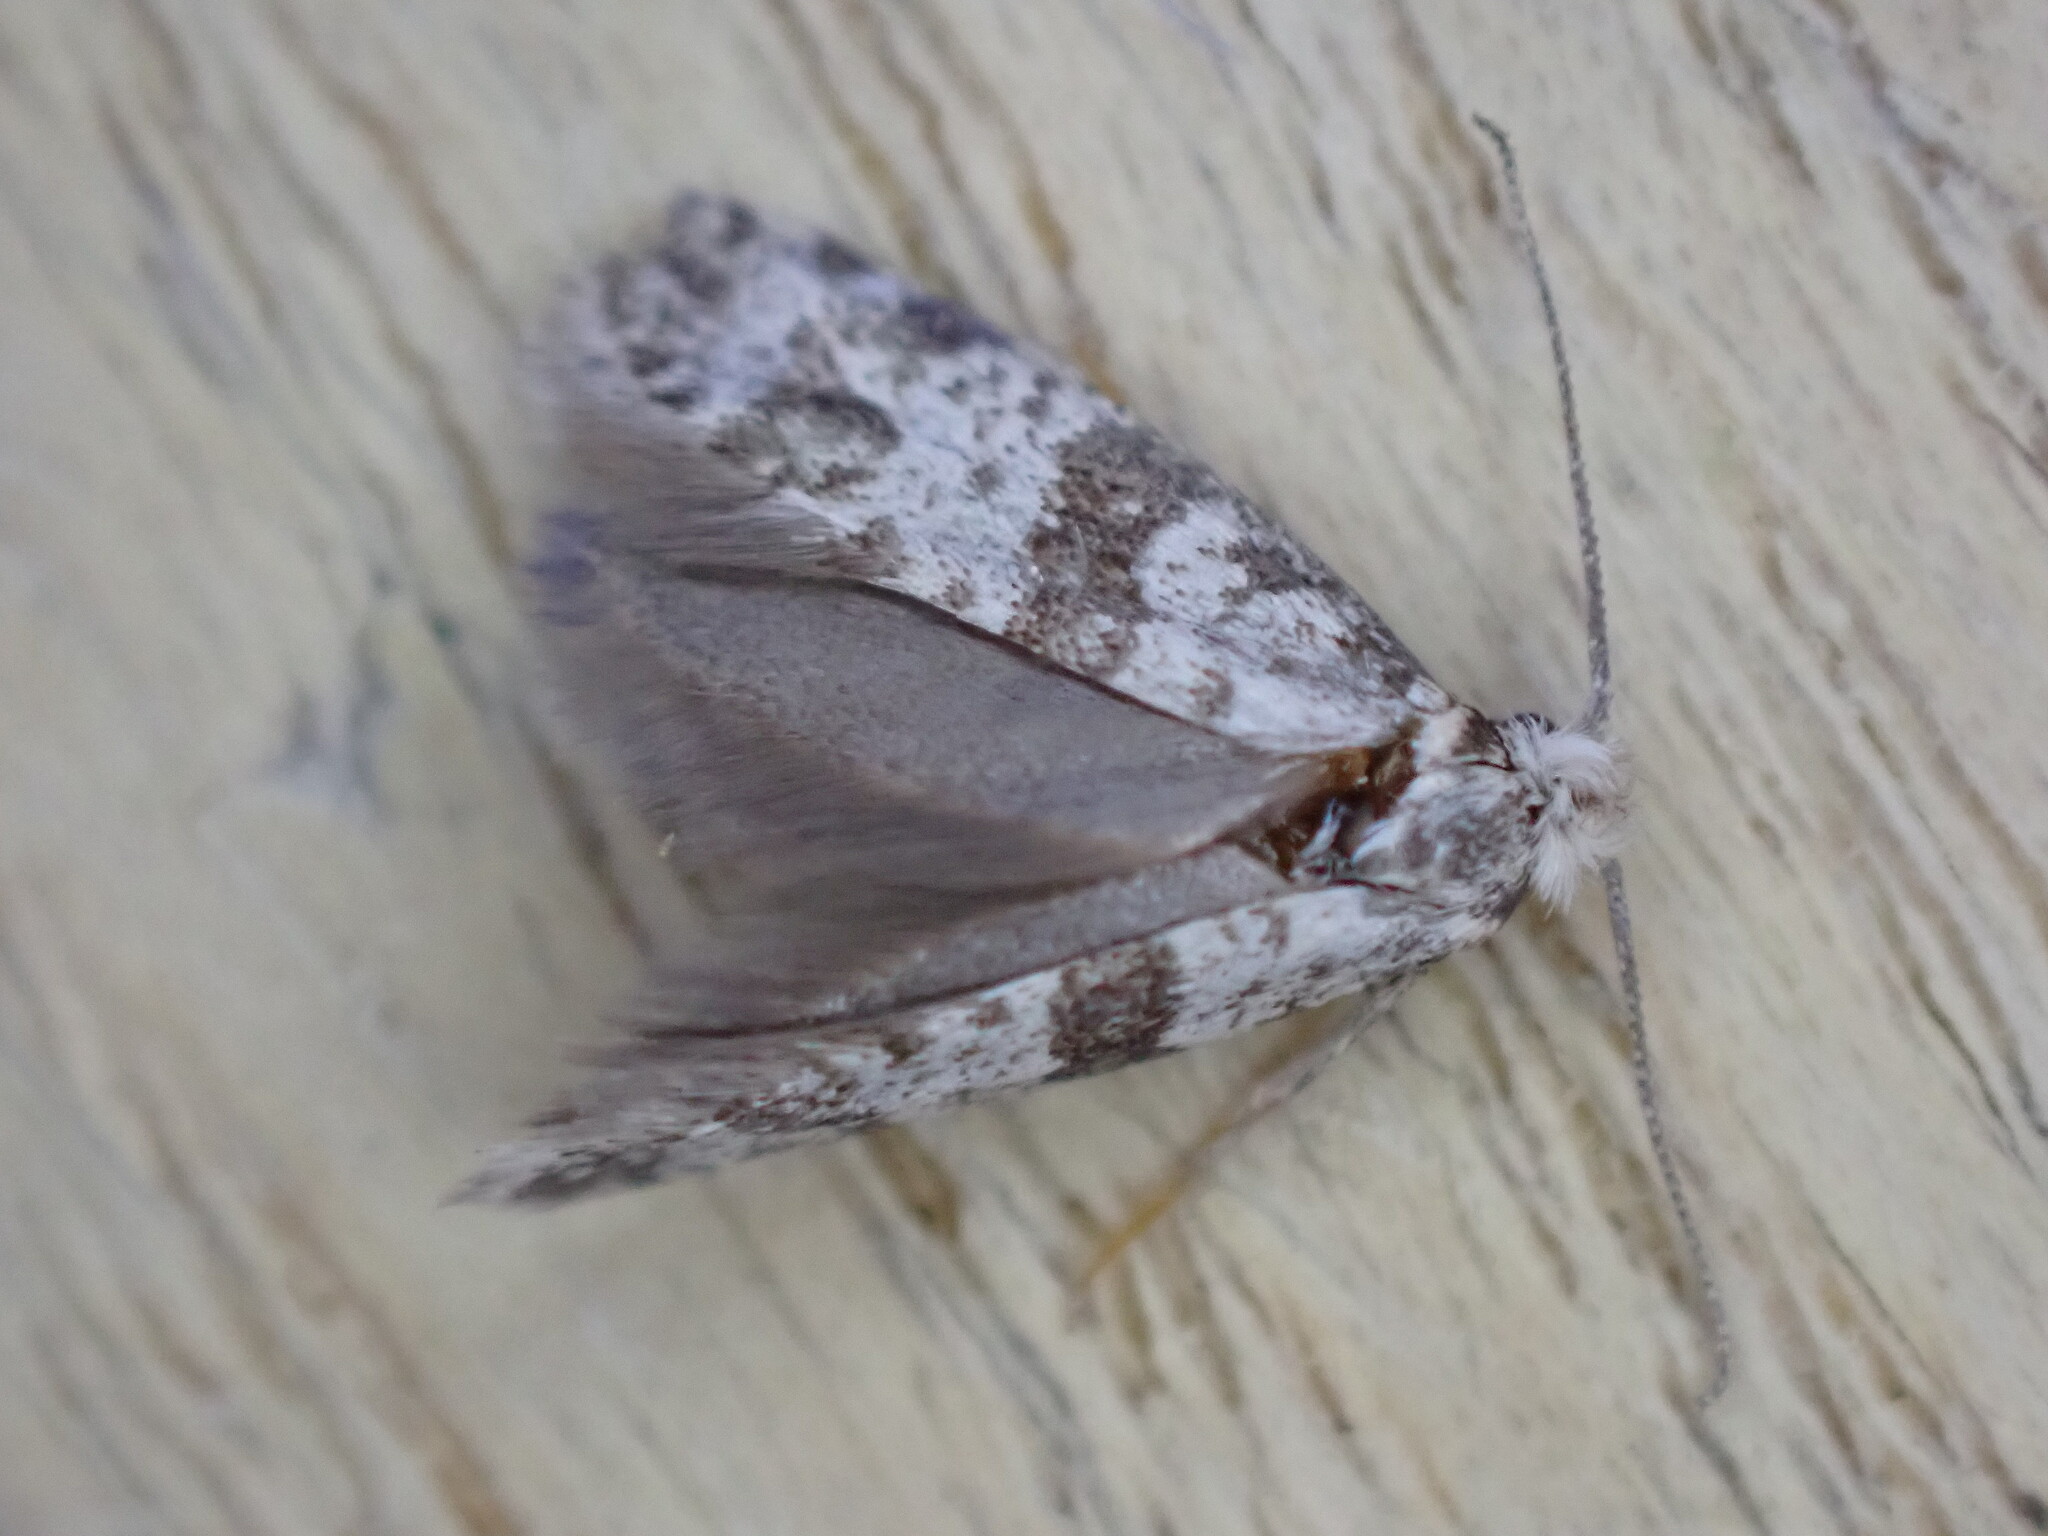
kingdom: Animalia
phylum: Arthropoda
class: Insecta
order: Lepidoptera
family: Yponomeutidae
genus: Scythropia
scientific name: Scythropia crataegella
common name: Hawthorn moth
